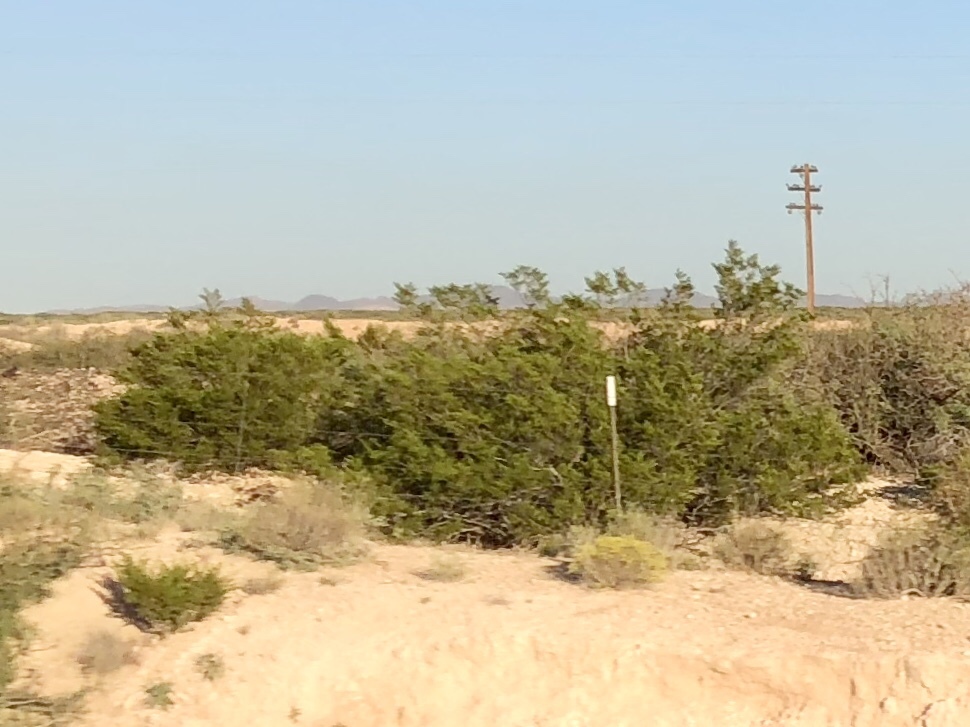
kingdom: Plantae
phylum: Tracheophyta
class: Magnoliopsida
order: Zygophyllales
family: Zygophyllaceae
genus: Larrea
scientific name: Larrea tridentata
